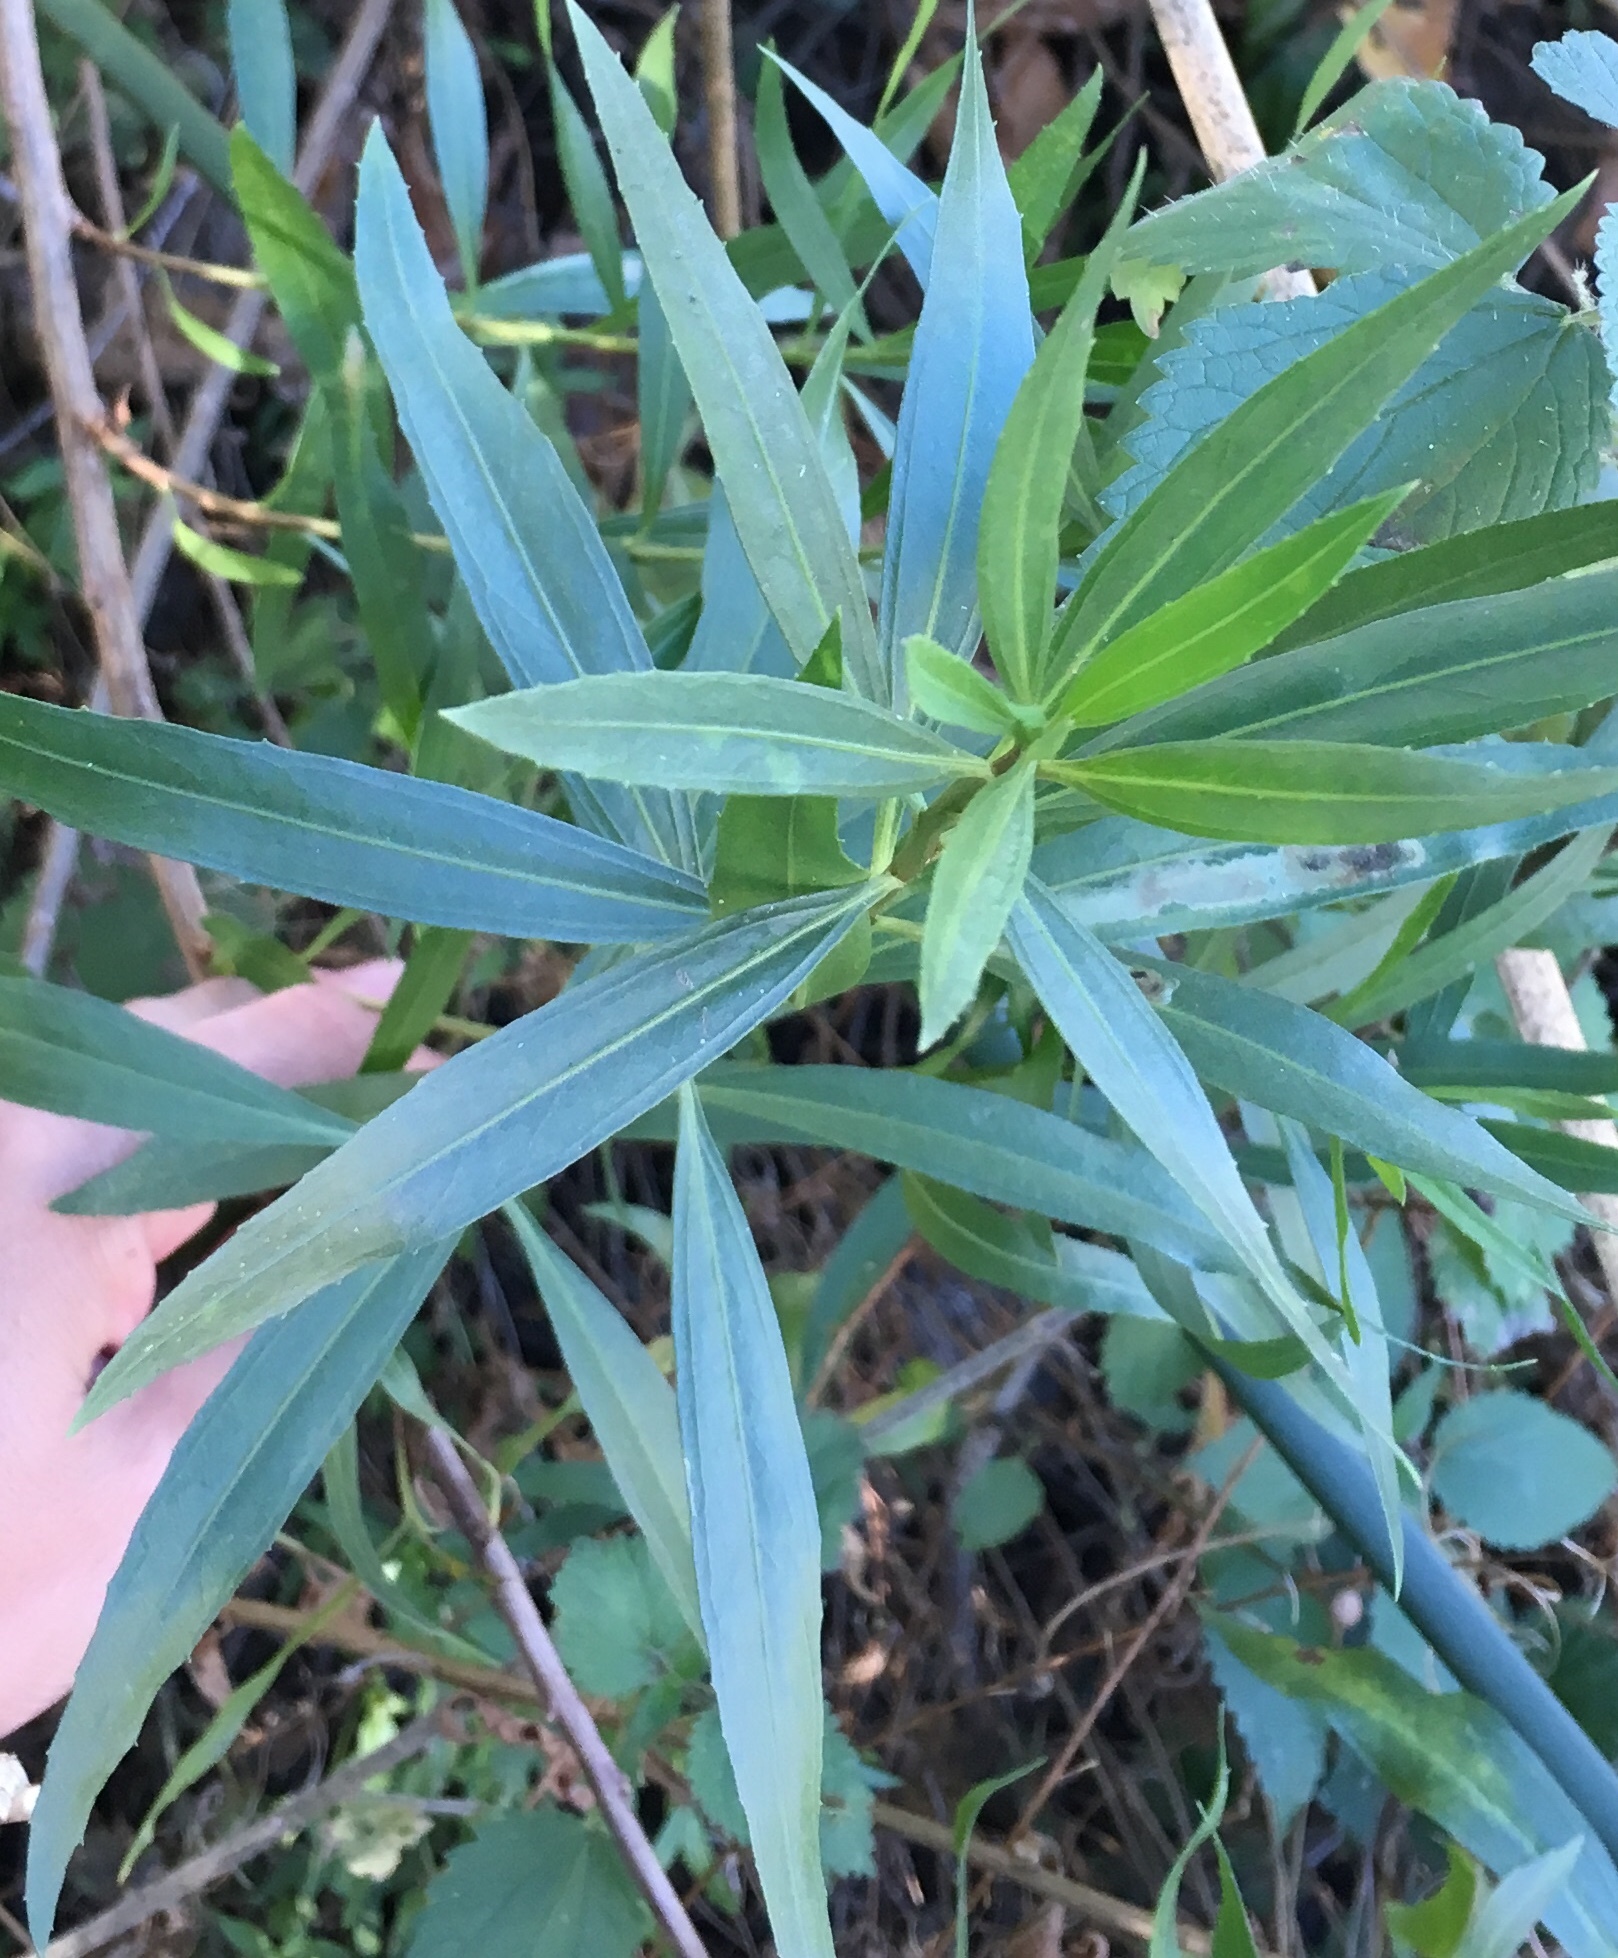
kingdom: Plantae
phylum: Tracheophyta
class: Magnoliopsida
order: Asterales
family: Asteraceae
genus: Baccharis
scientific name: Baccharis salicifolia
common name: Sticky baccharis
